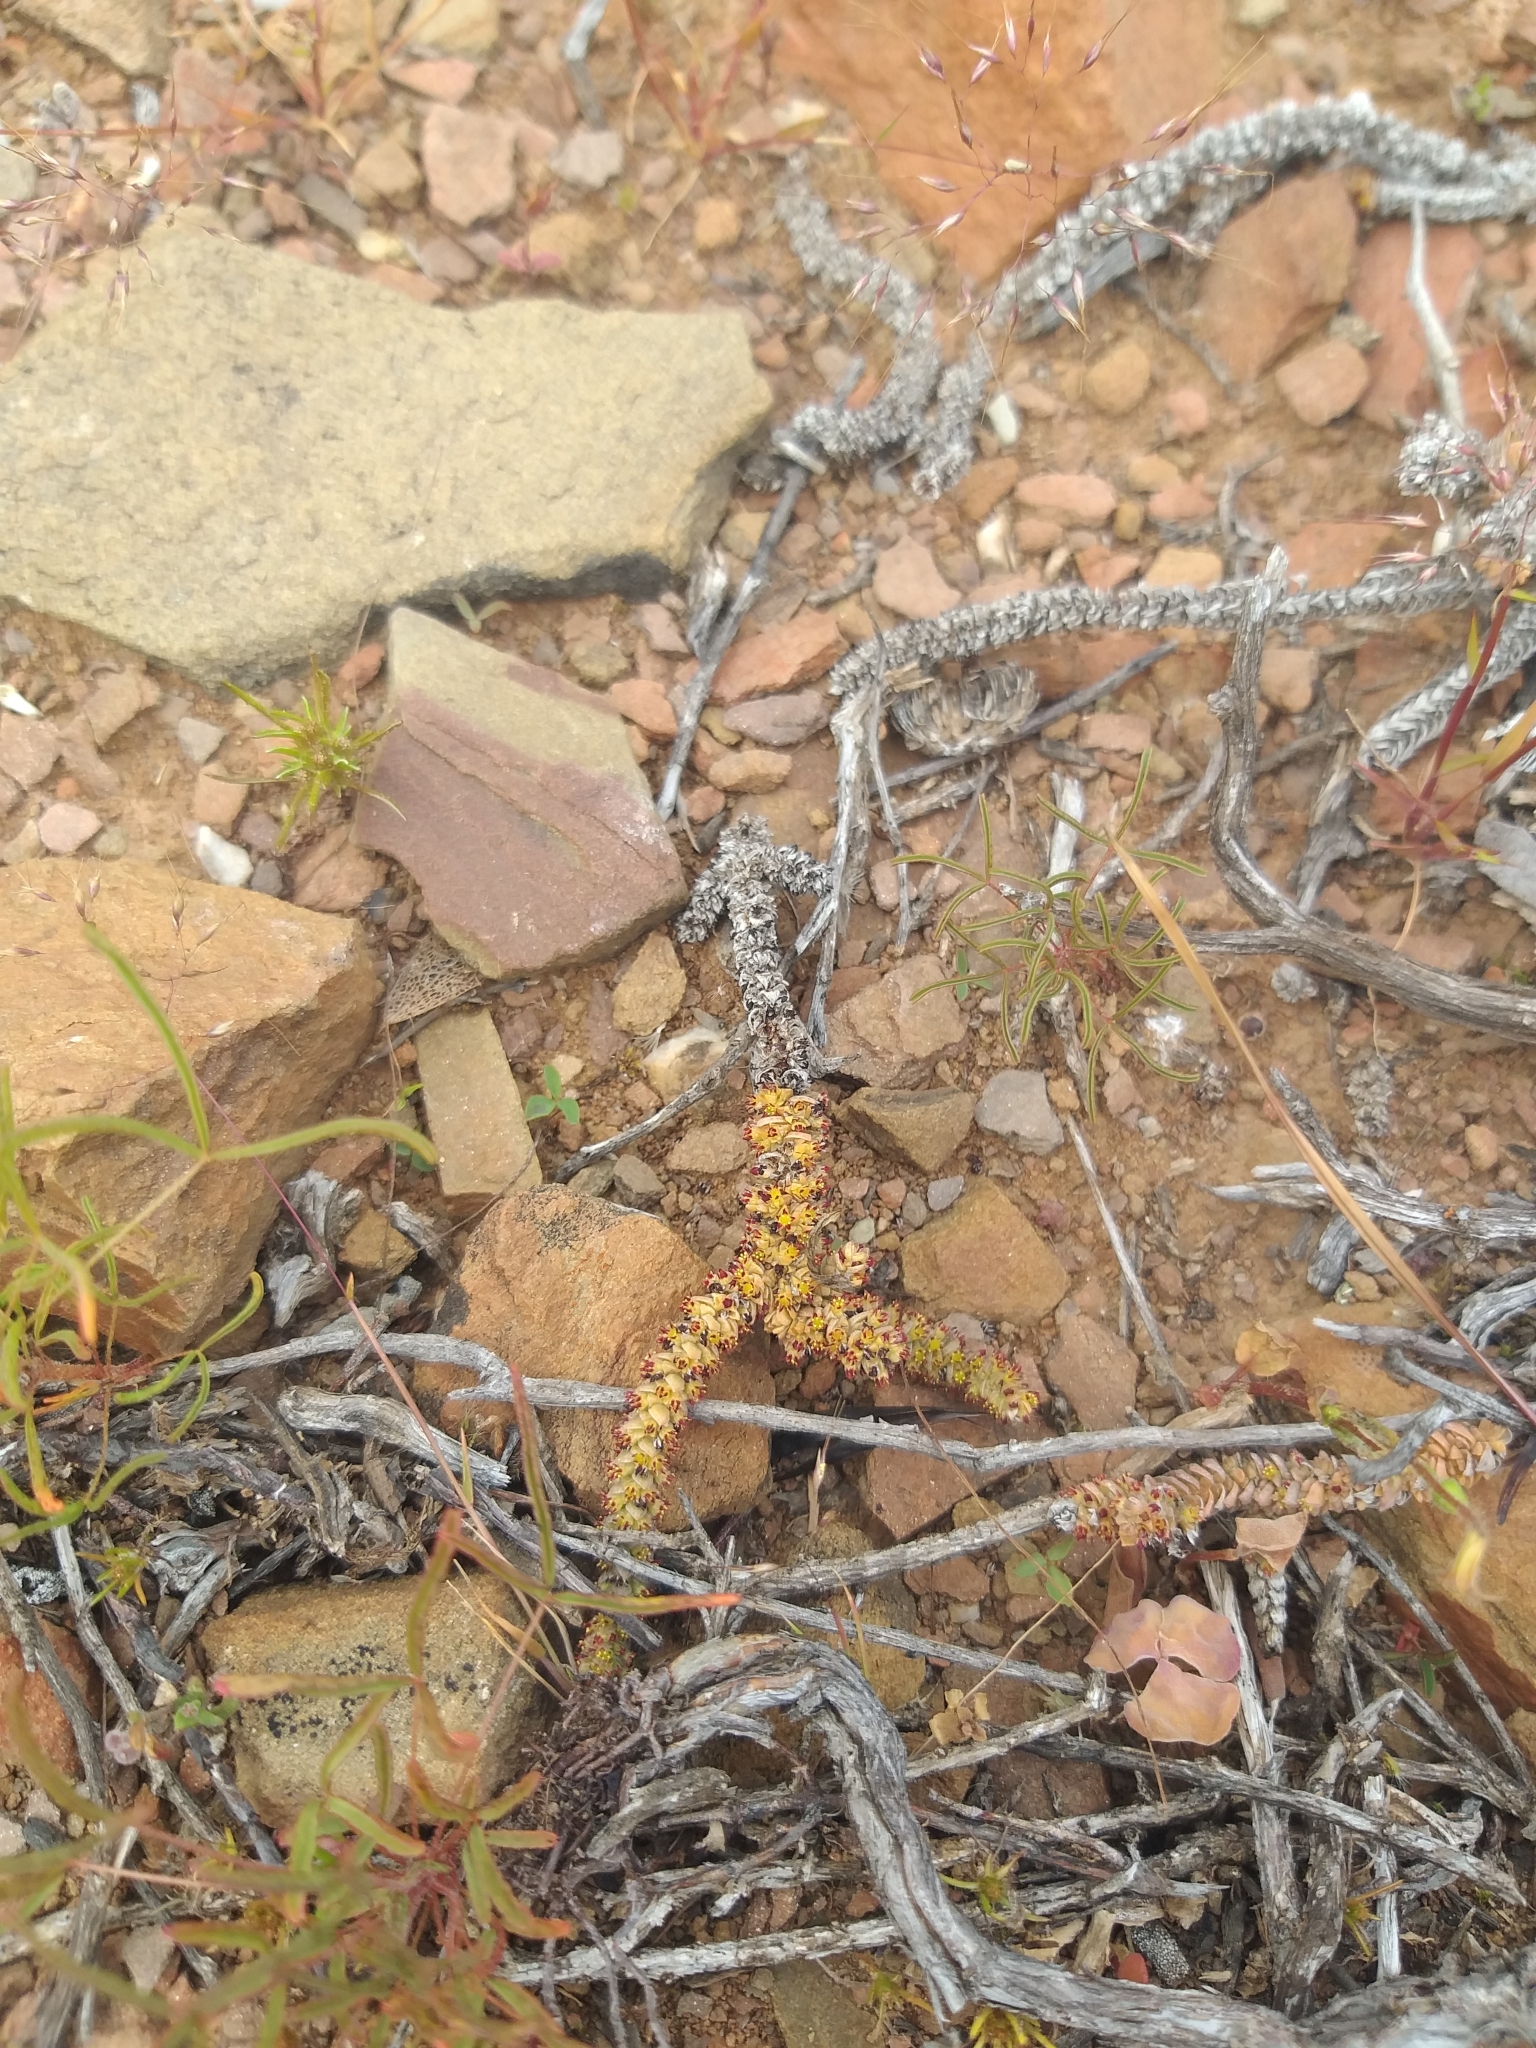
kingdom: Plantae
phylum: Tracheophyta
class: Magnoliopsida
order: Saxifragales
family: Crassulaceae
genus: Crassula
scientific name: Crassula muscosa
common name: Toy-cypress
